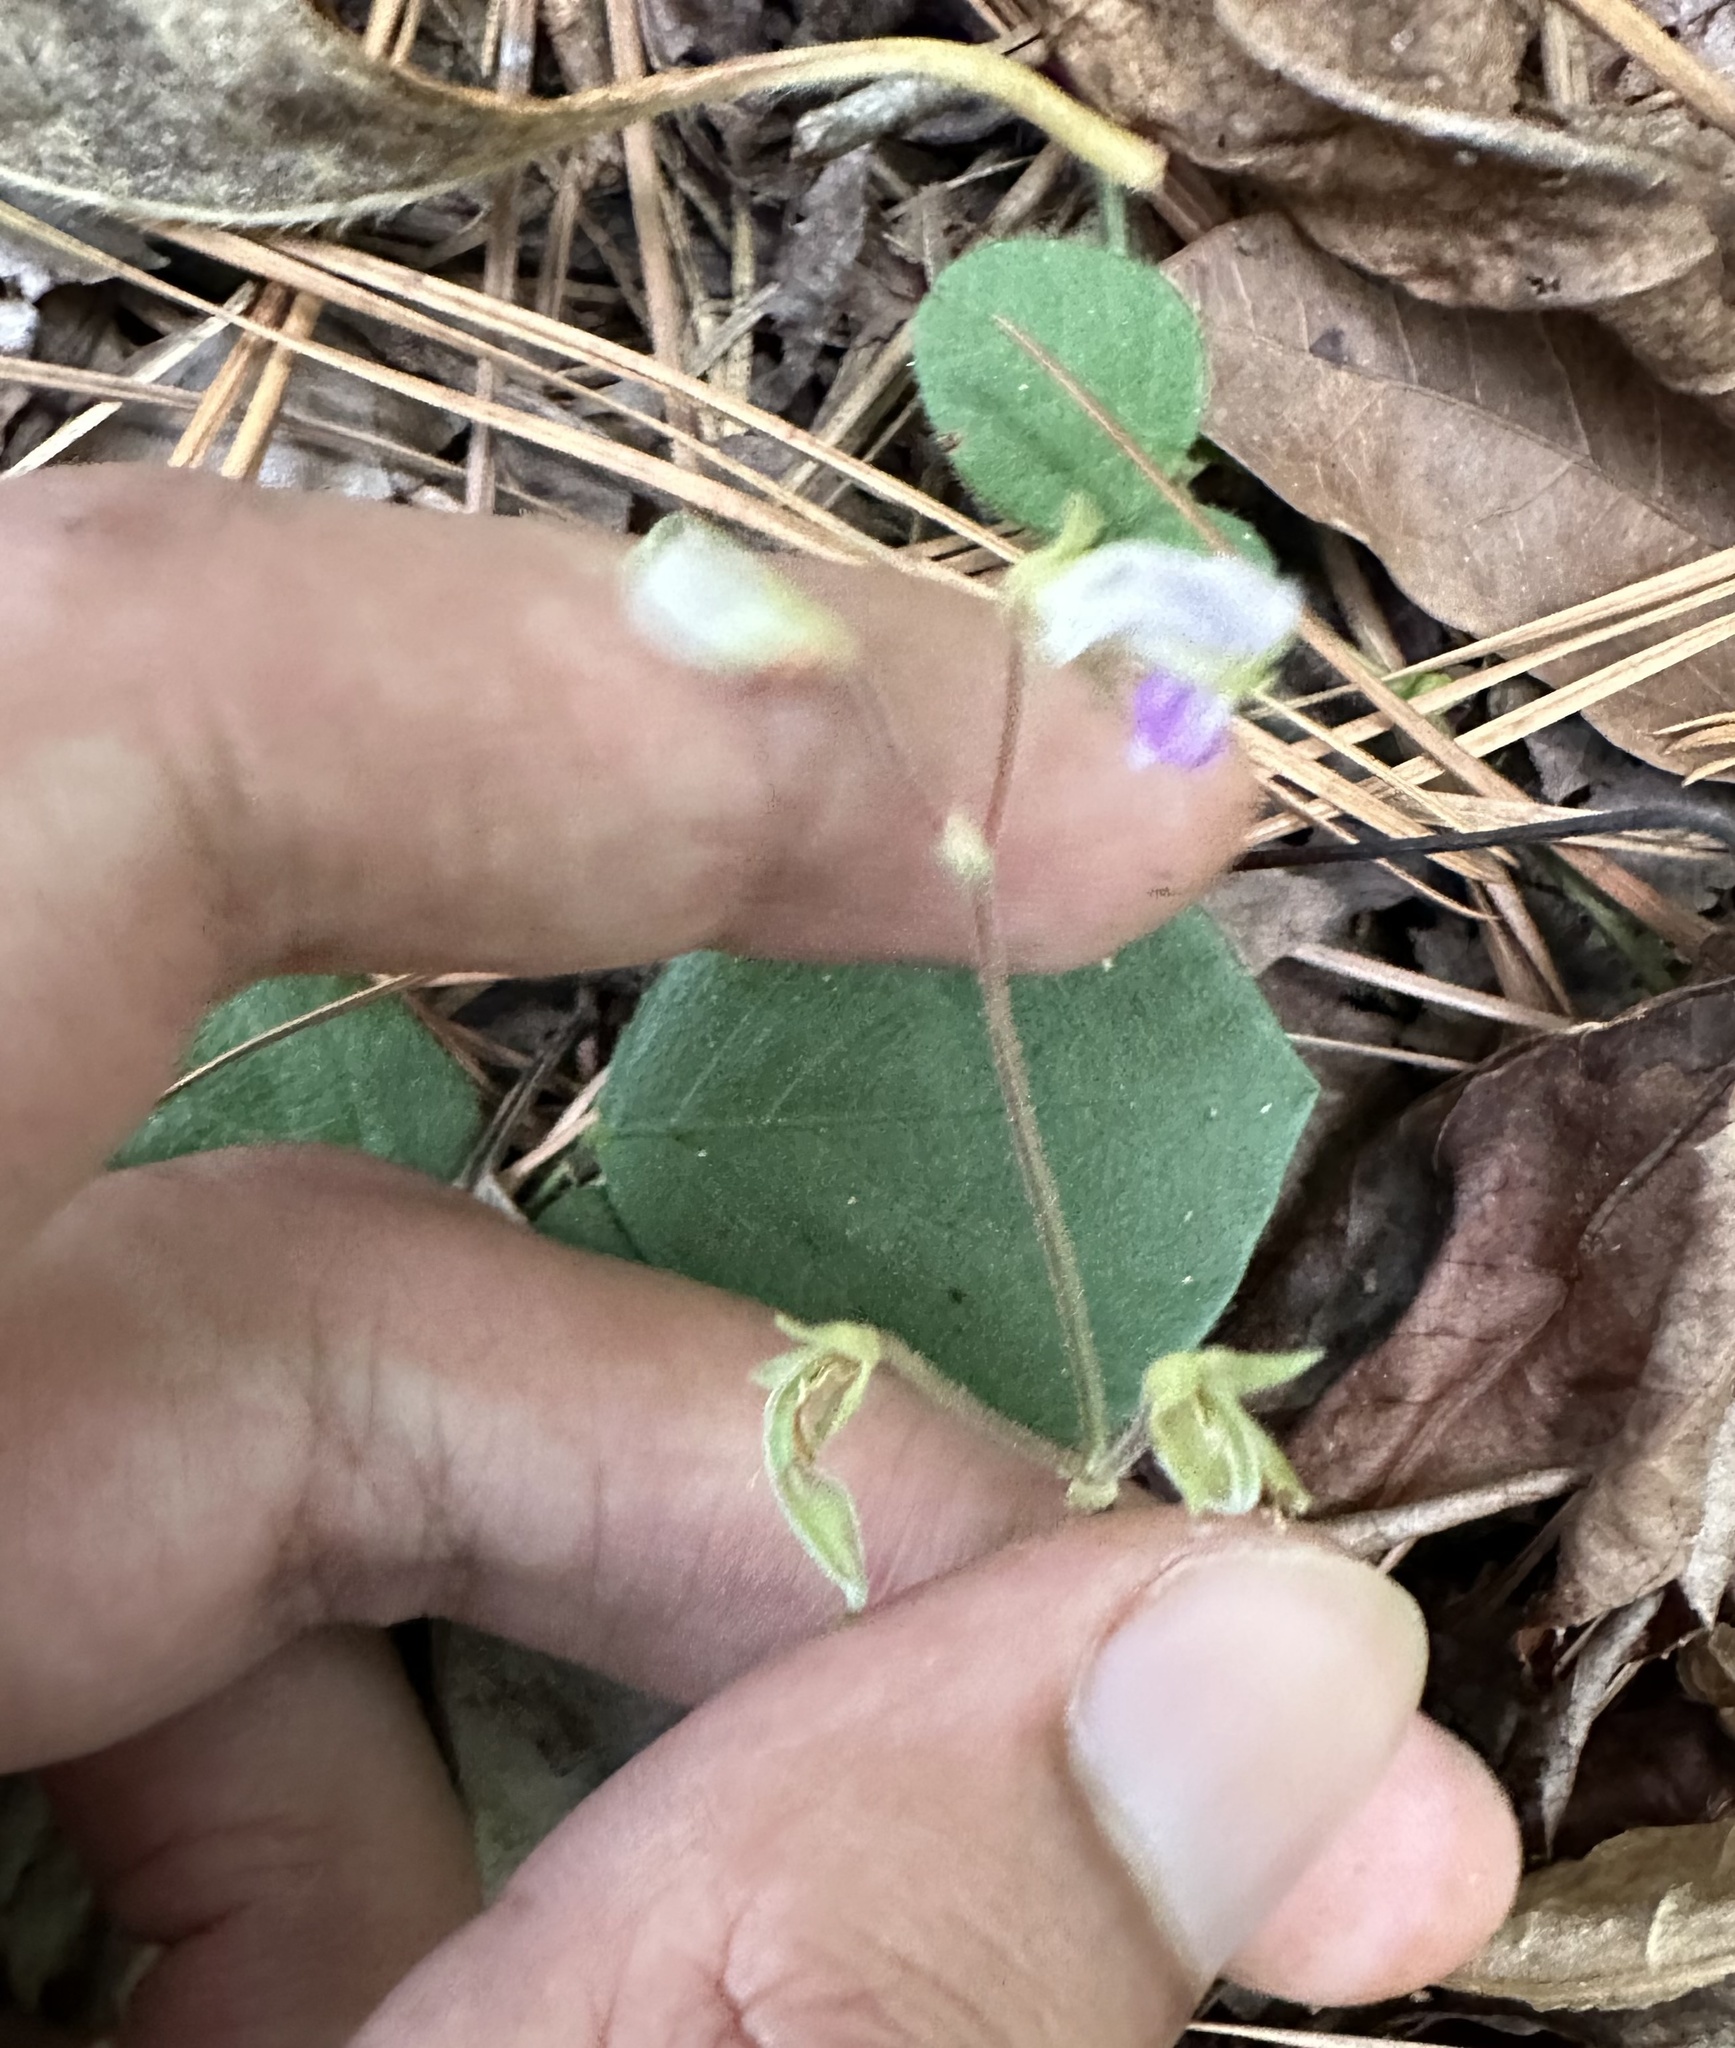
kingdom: Plantae
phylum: Tracheophyta
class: Magnoliopsida
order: Fabales
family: Fabaceae
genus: Desmodium
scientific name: Desmodium rotundifolium
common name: Dollarleaf
